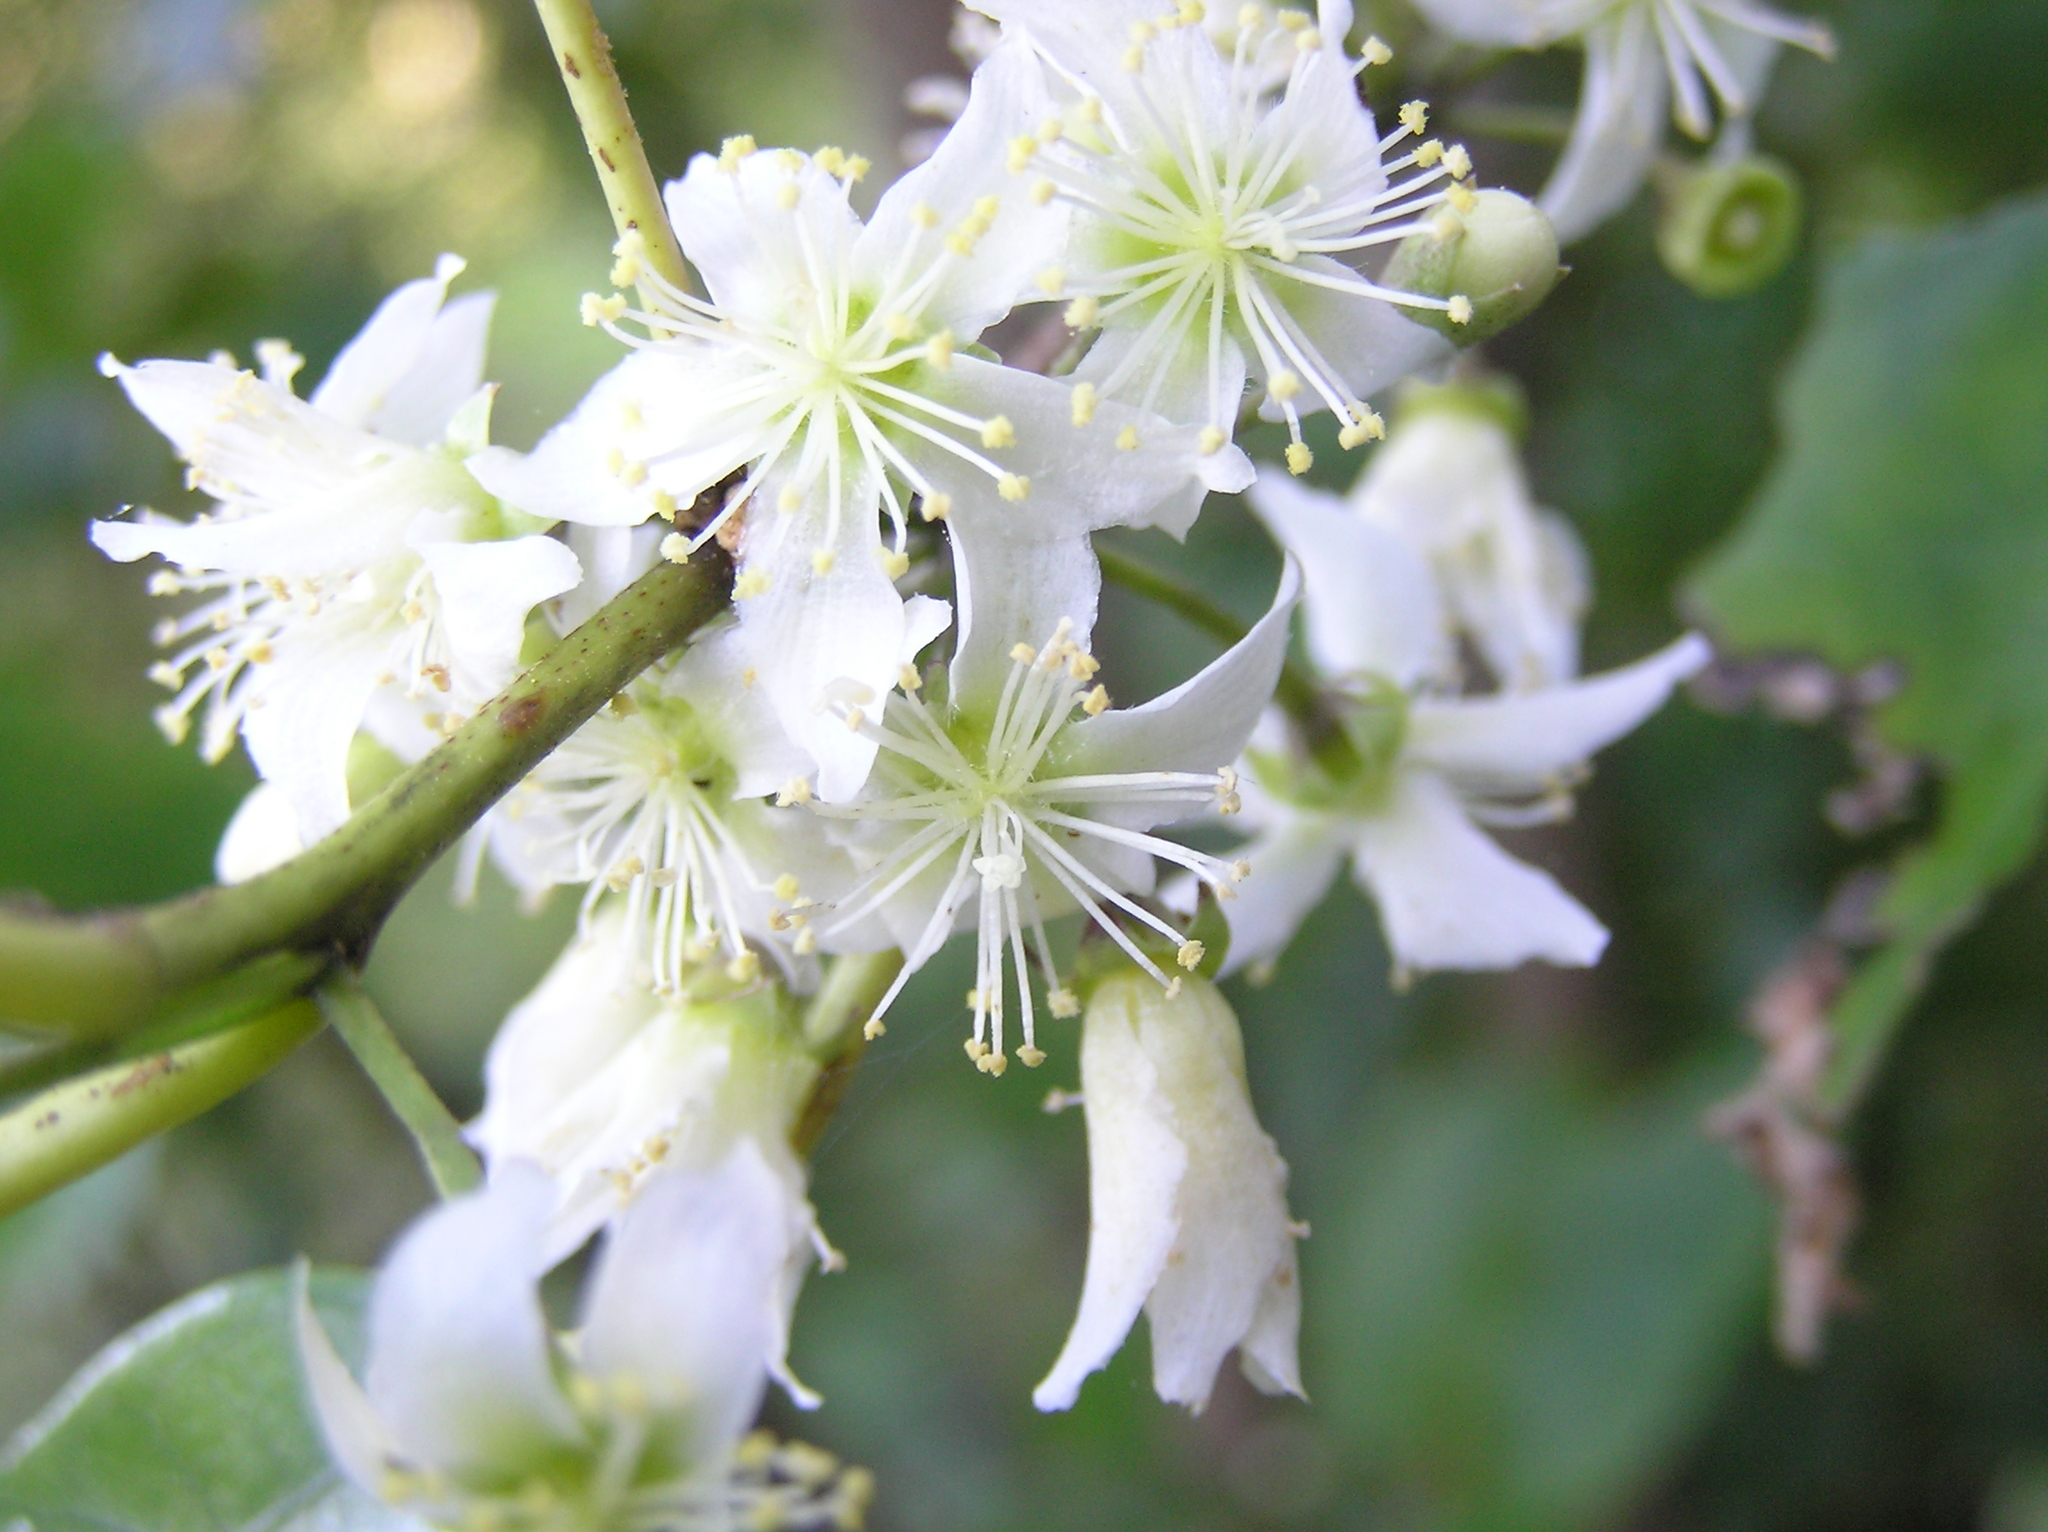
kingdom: Plantae
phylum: Tracheophyta
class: Magnoliopsida
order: Malvales
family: Malvaceae
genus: Hoheria
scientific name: Hoheria ovata
